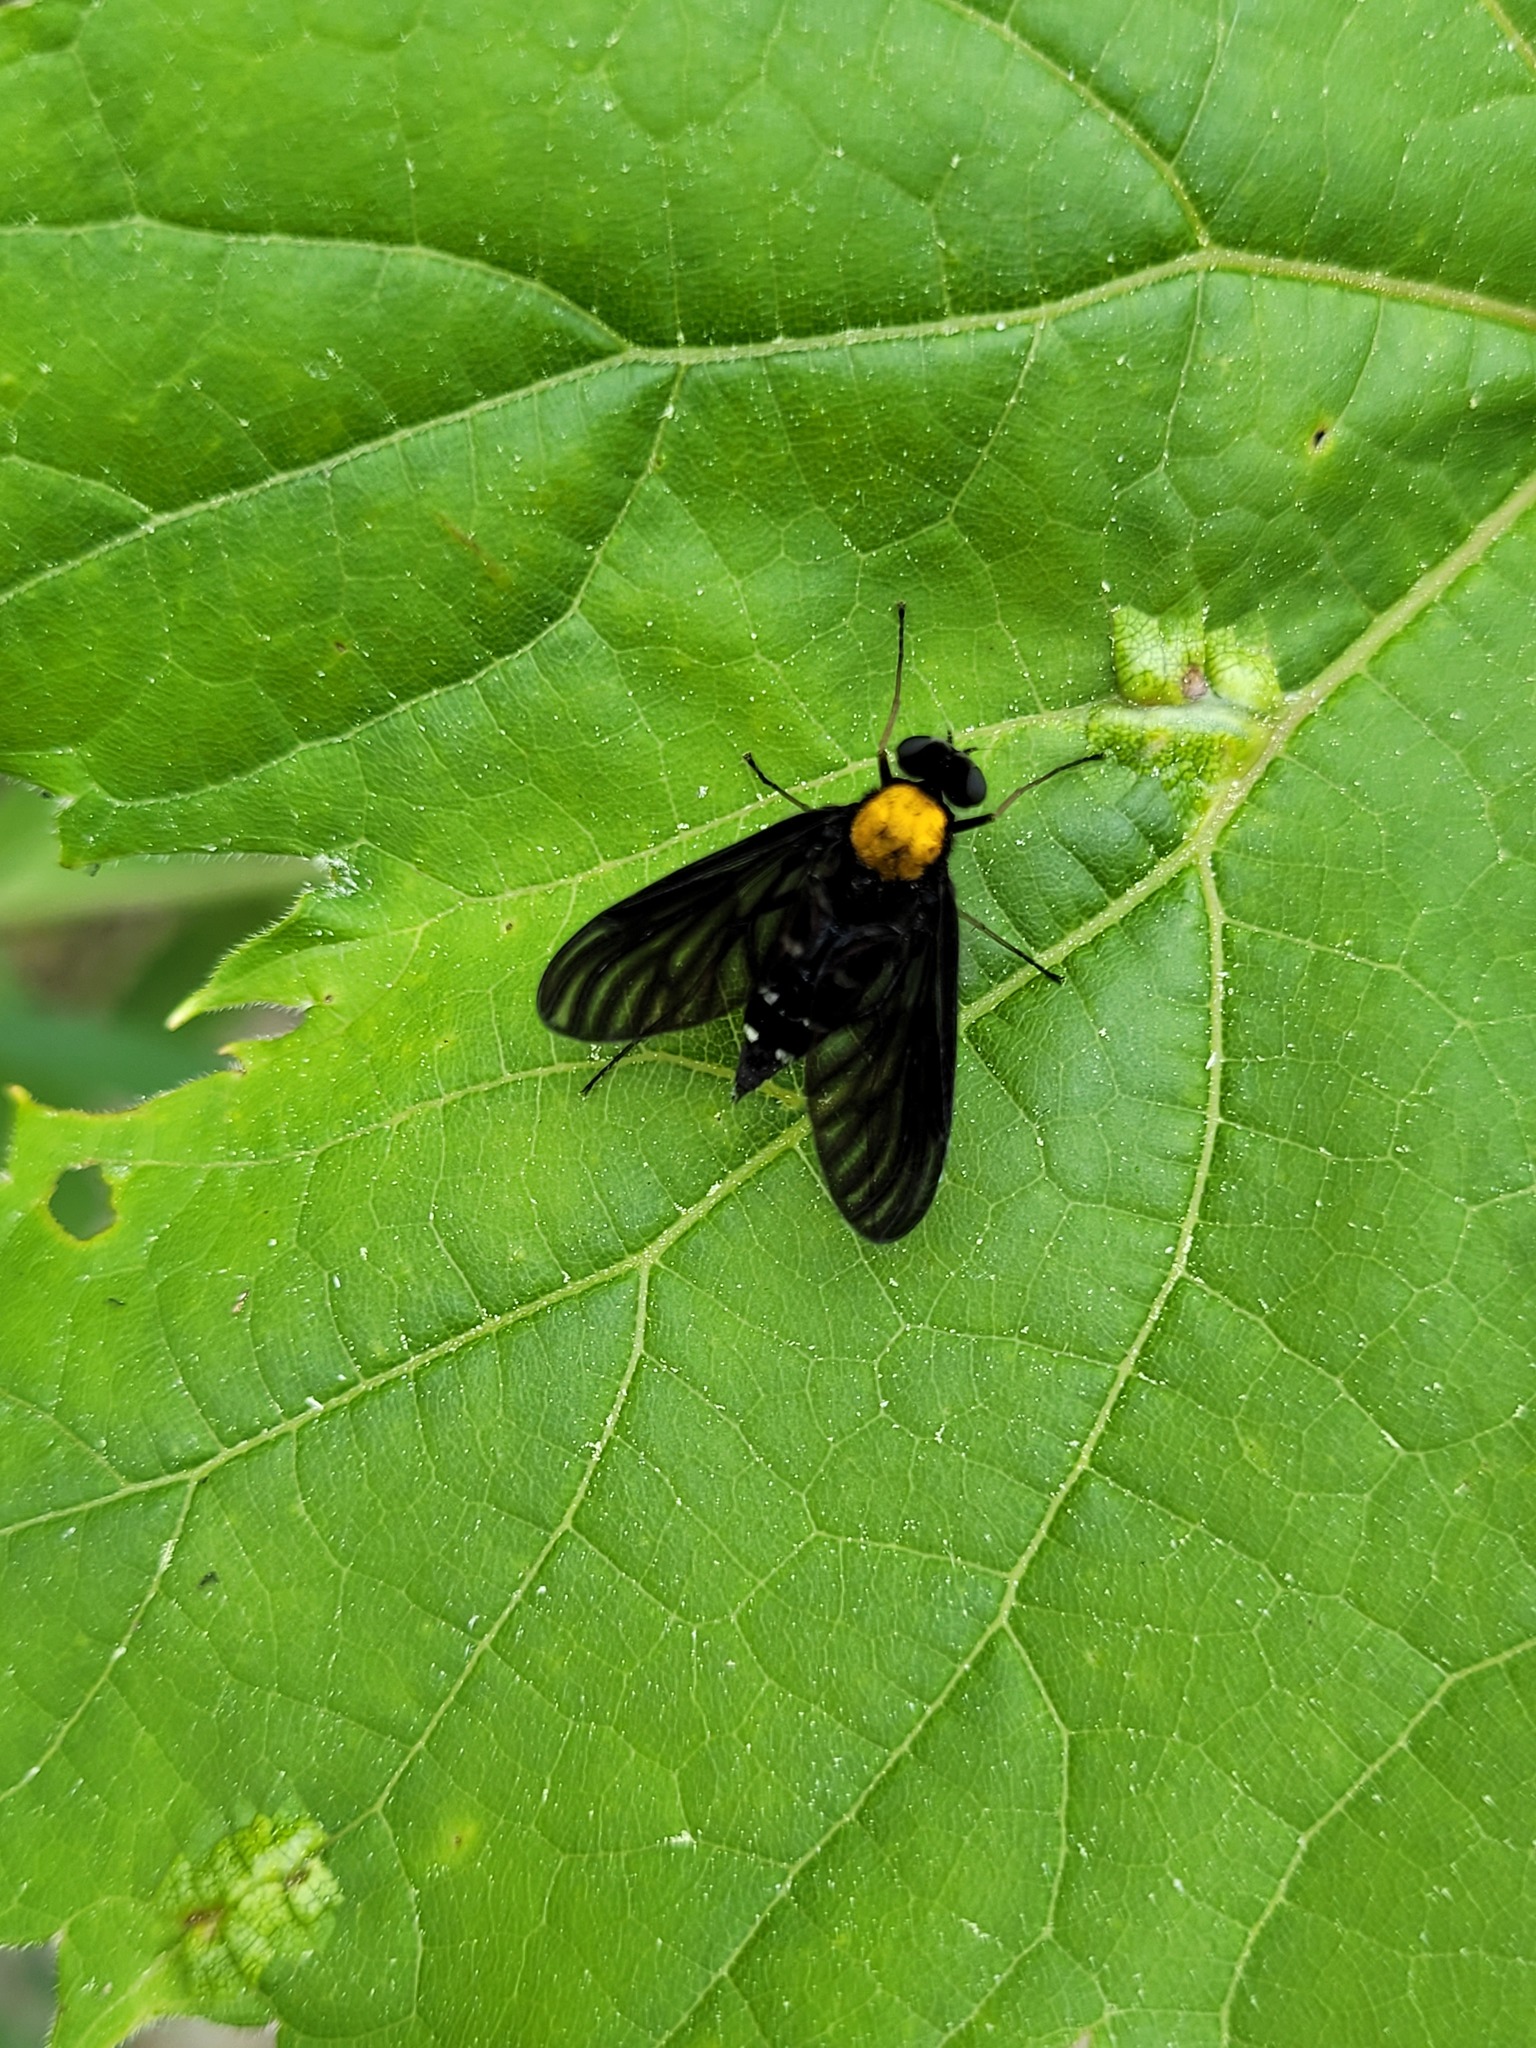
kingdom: Animalia
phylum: Arthropoda
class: Insecta
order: Diptera
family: Rhagionidae
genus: Chrysopilus
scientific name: Chrysopilus thoracicus
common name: Golden-backed snipe fly
